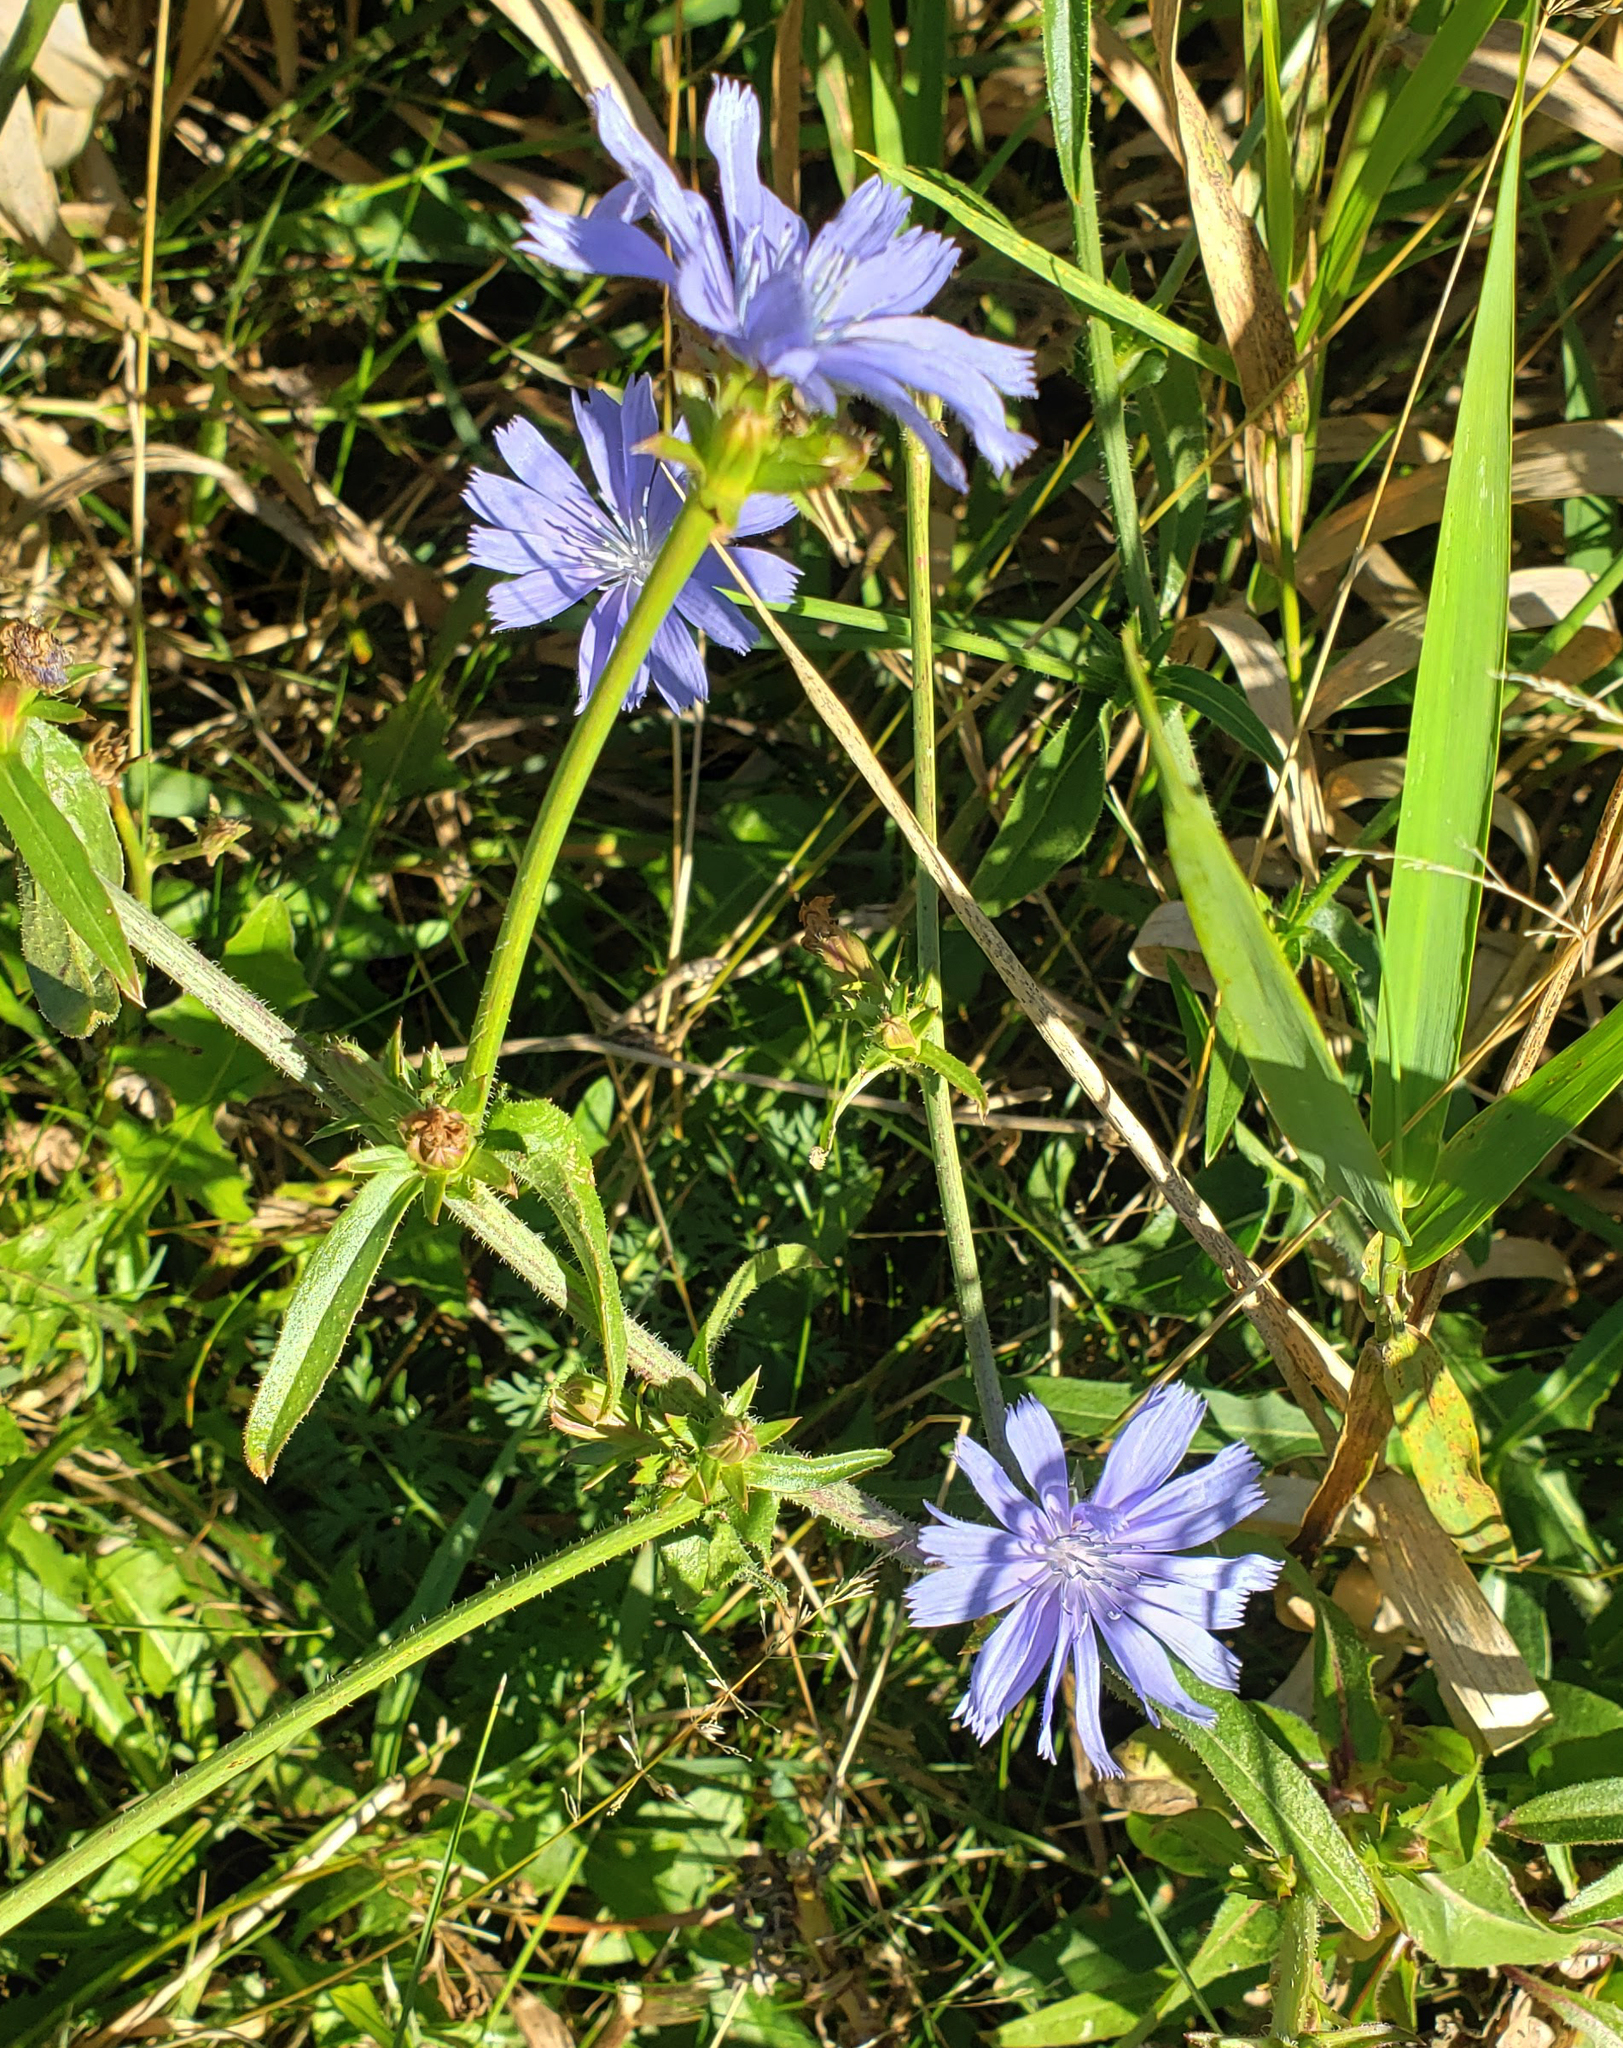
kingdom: Plantae
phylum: Tracheophyta
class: Magnoliopsida
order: Asterales
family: Asteraceae
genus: Cichorium
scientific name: Cichorium intybus
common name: Chicory
